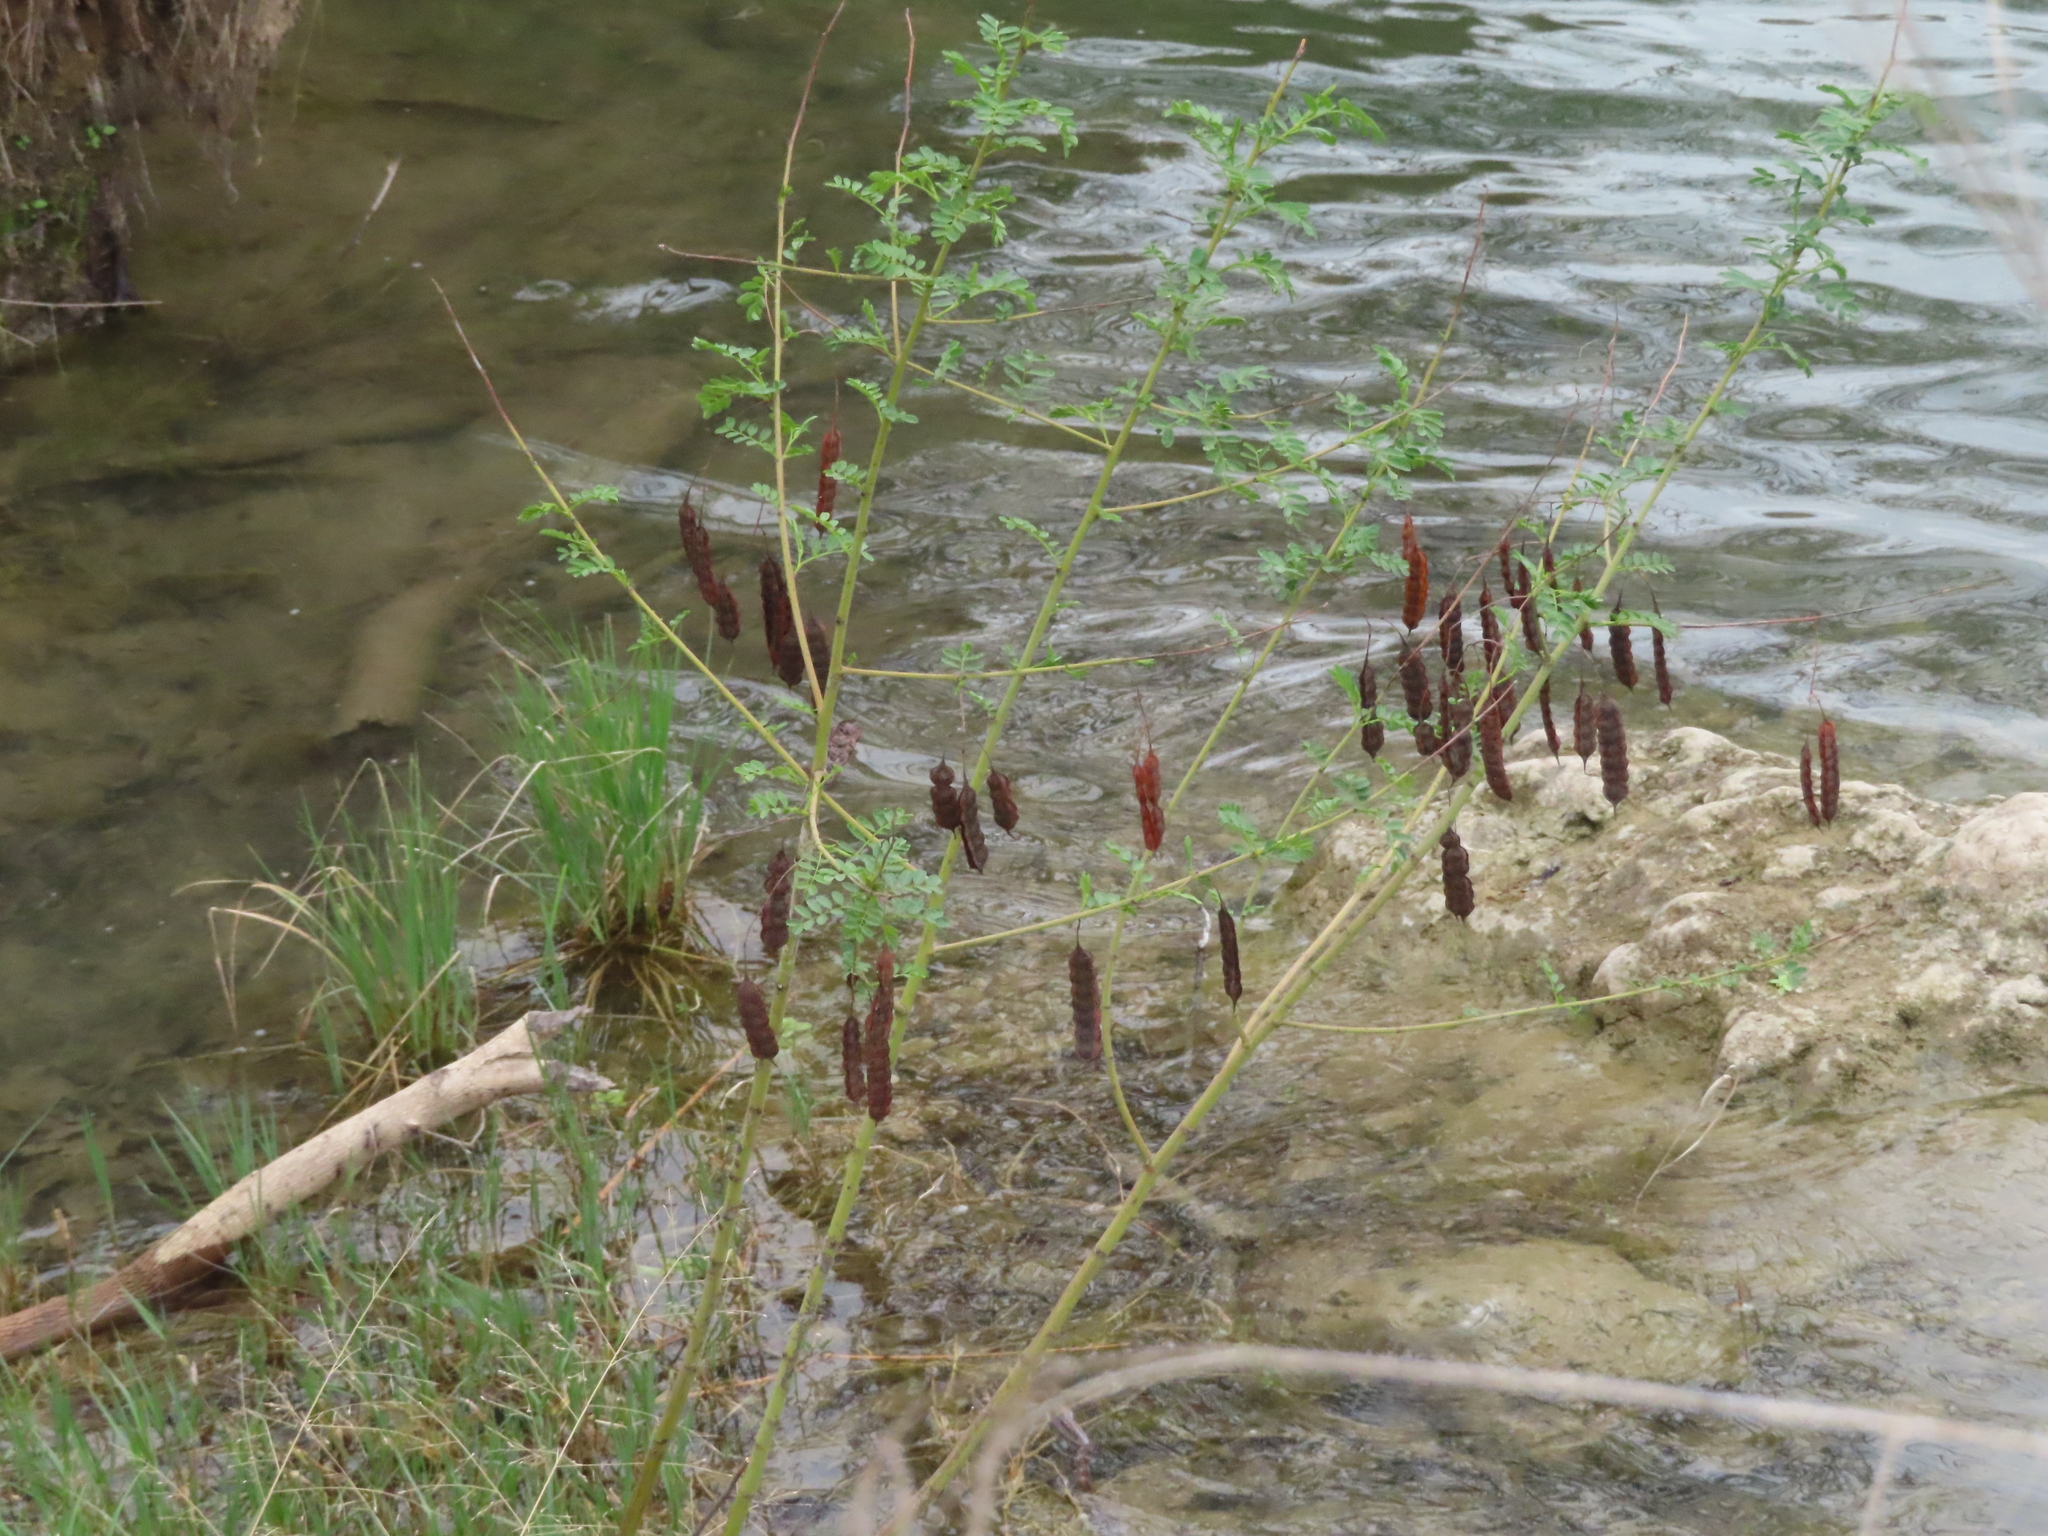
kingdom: Plantae
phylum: Tracheophyta
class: Magnoliopsida
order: Fabales
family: Fabaceae
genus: Sesbania
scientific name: Sesbania drummondii
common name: Poison-bean
